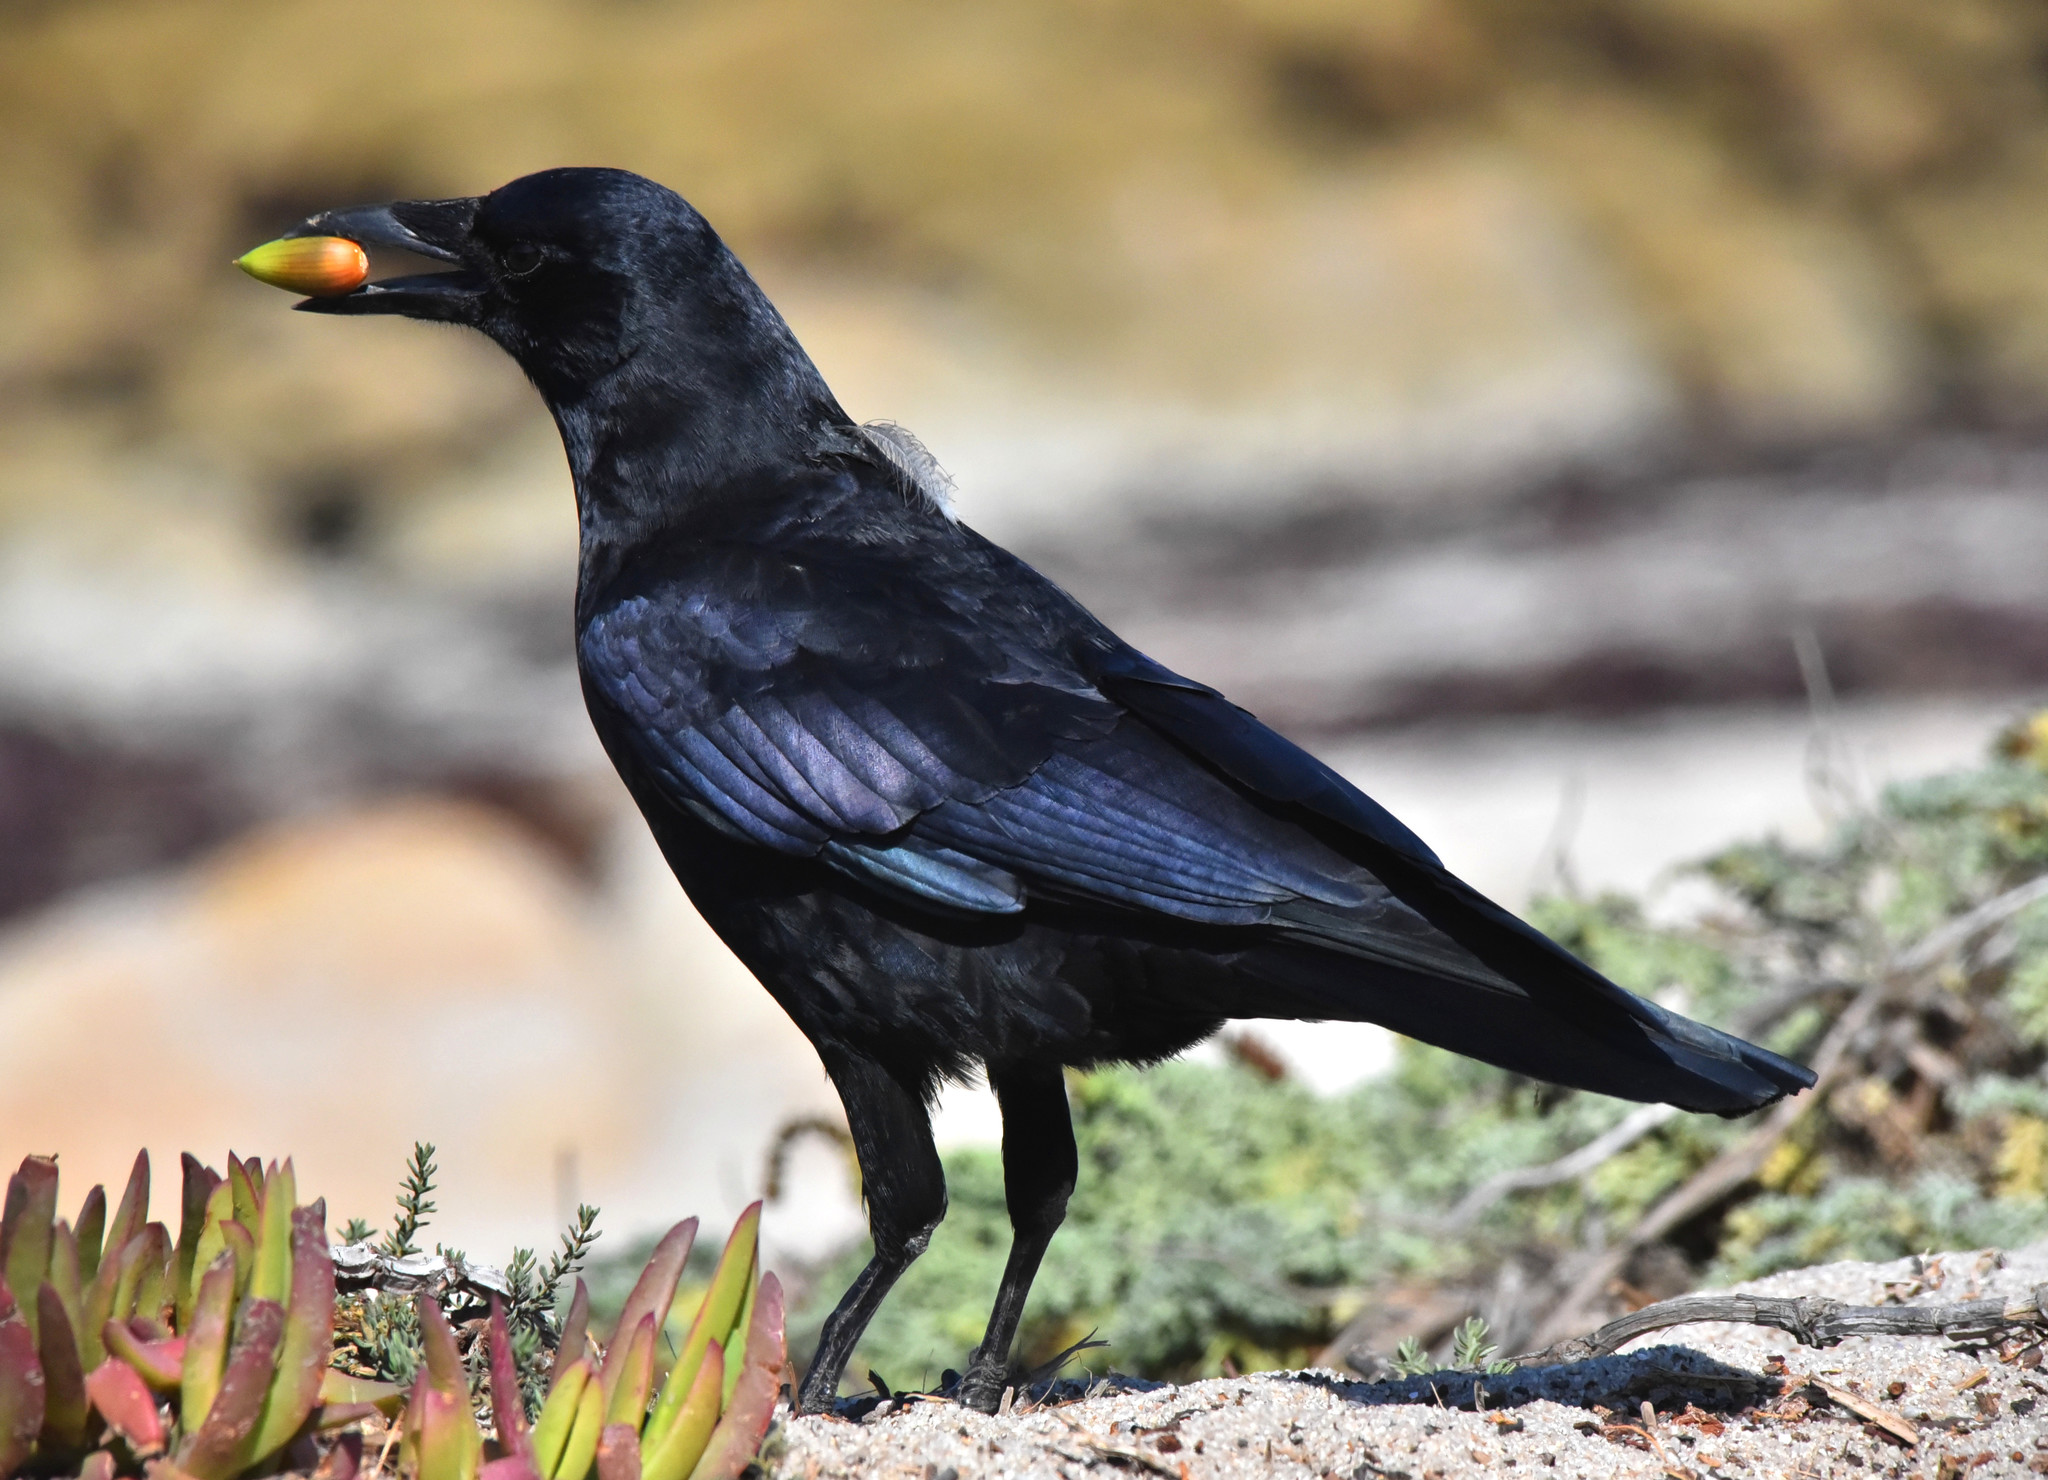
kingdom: Animalia
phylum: Chordata
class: Aves
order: Passeriformes
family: Corvidae
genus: Corvus
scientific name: Corvus brachyrhynchos
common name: American crow
